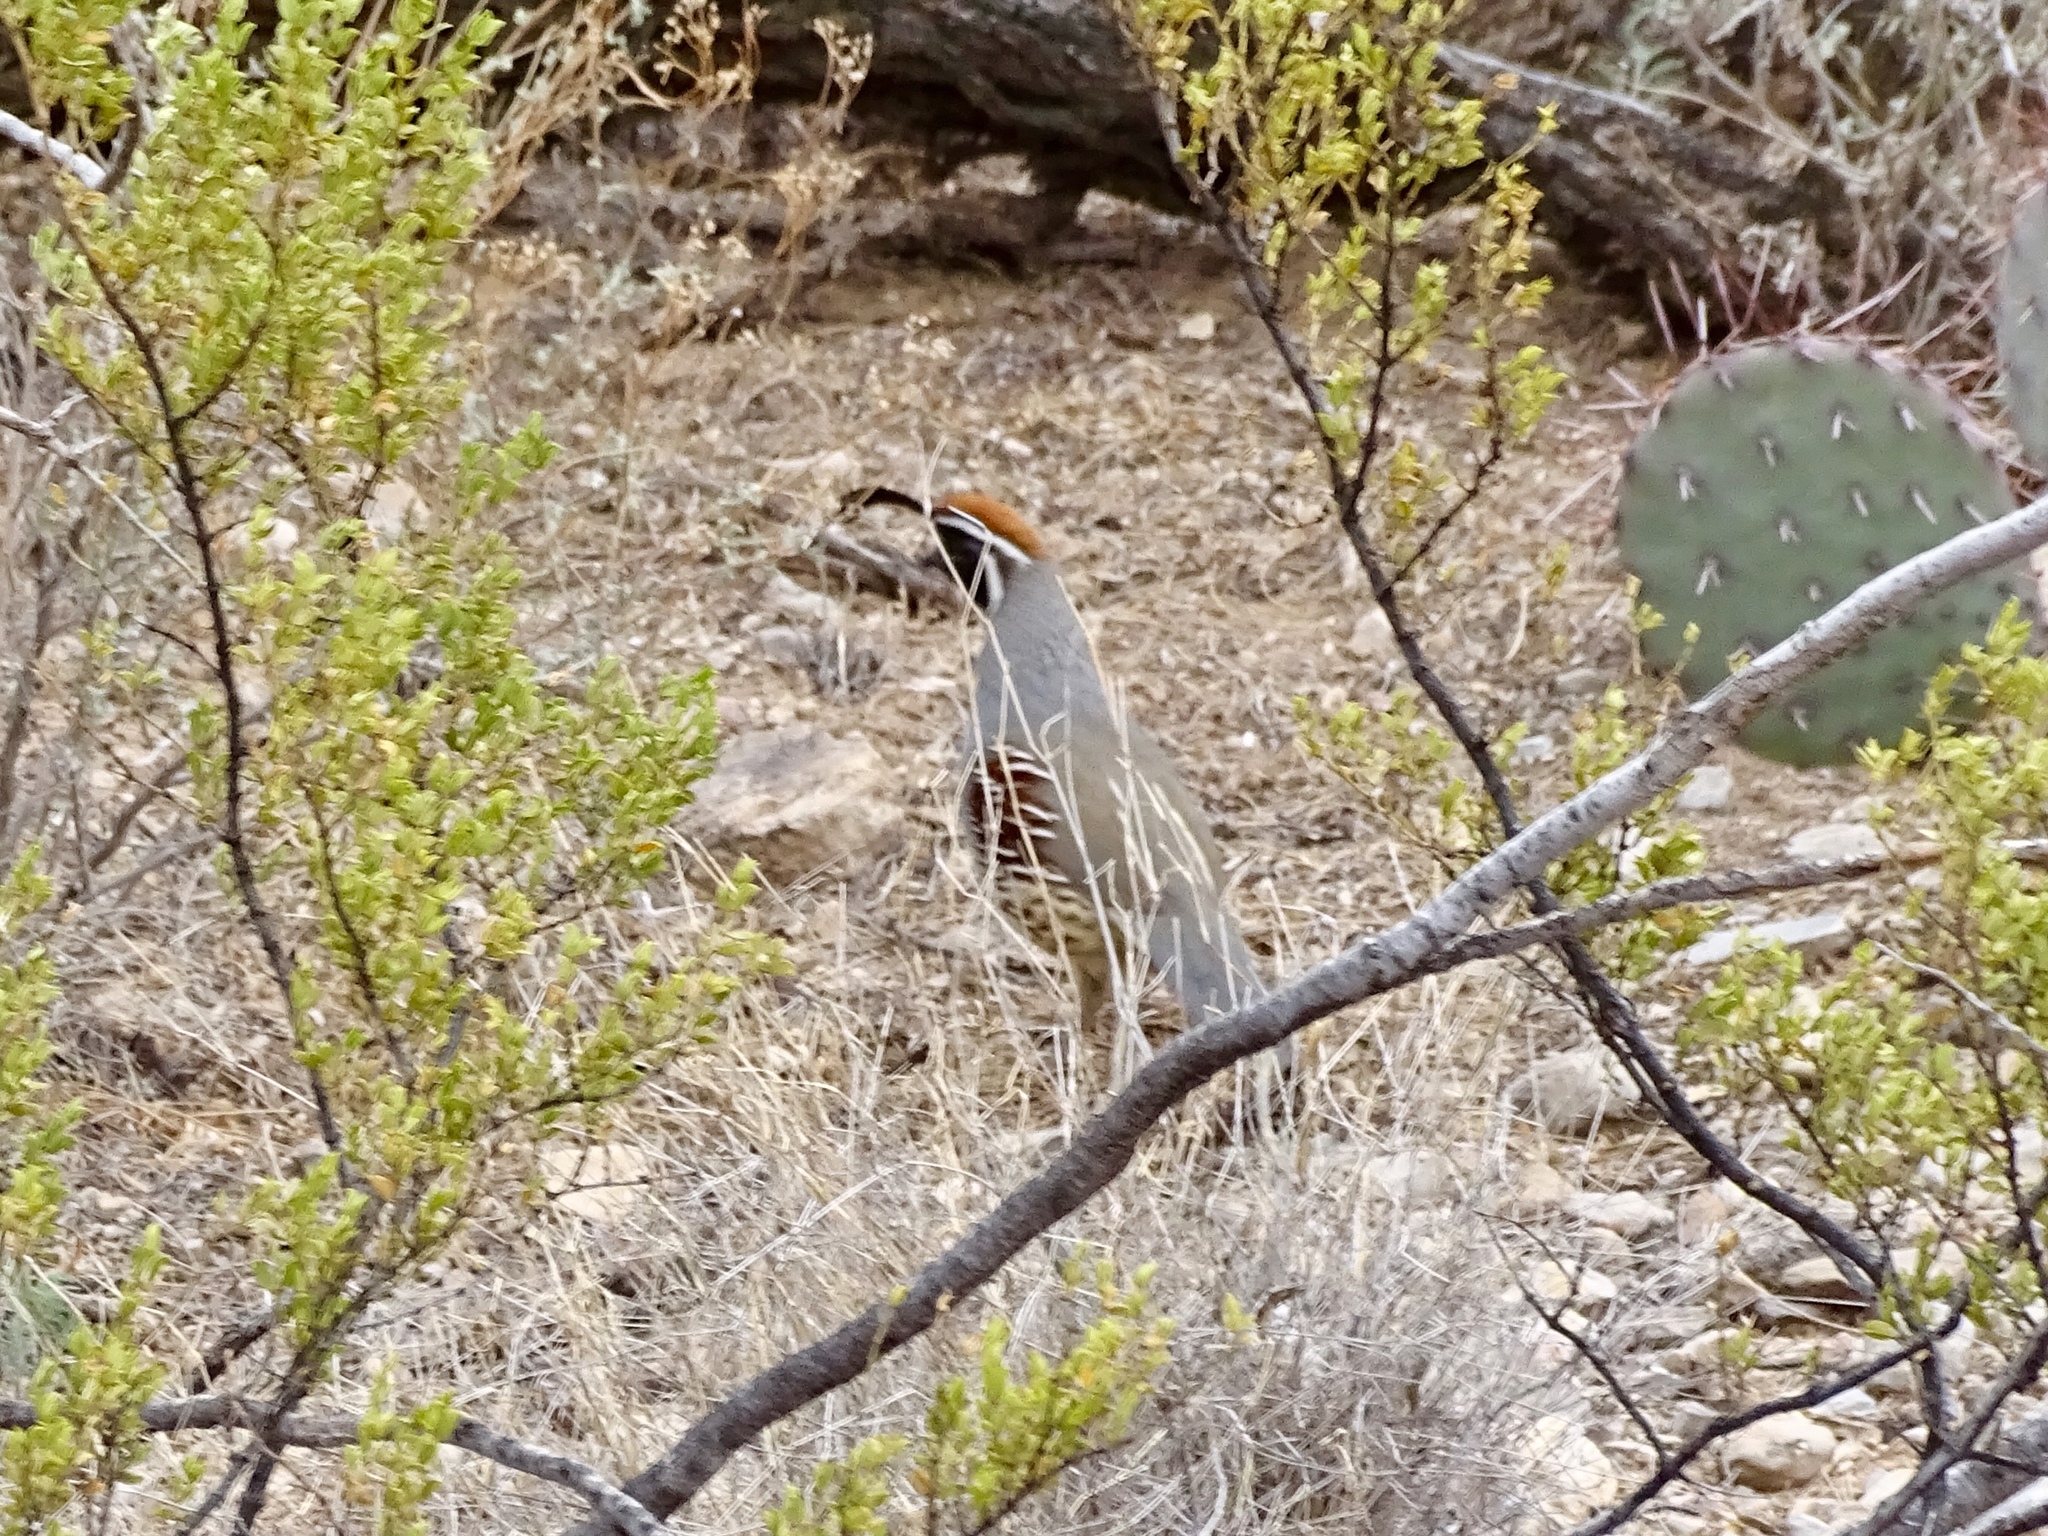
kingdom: Animalia
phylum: Chordata
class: Aves
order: Galliformes
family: Odontophoridae
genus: Callipepla
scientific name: Callipepla gambelii
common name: Gambel's quail
